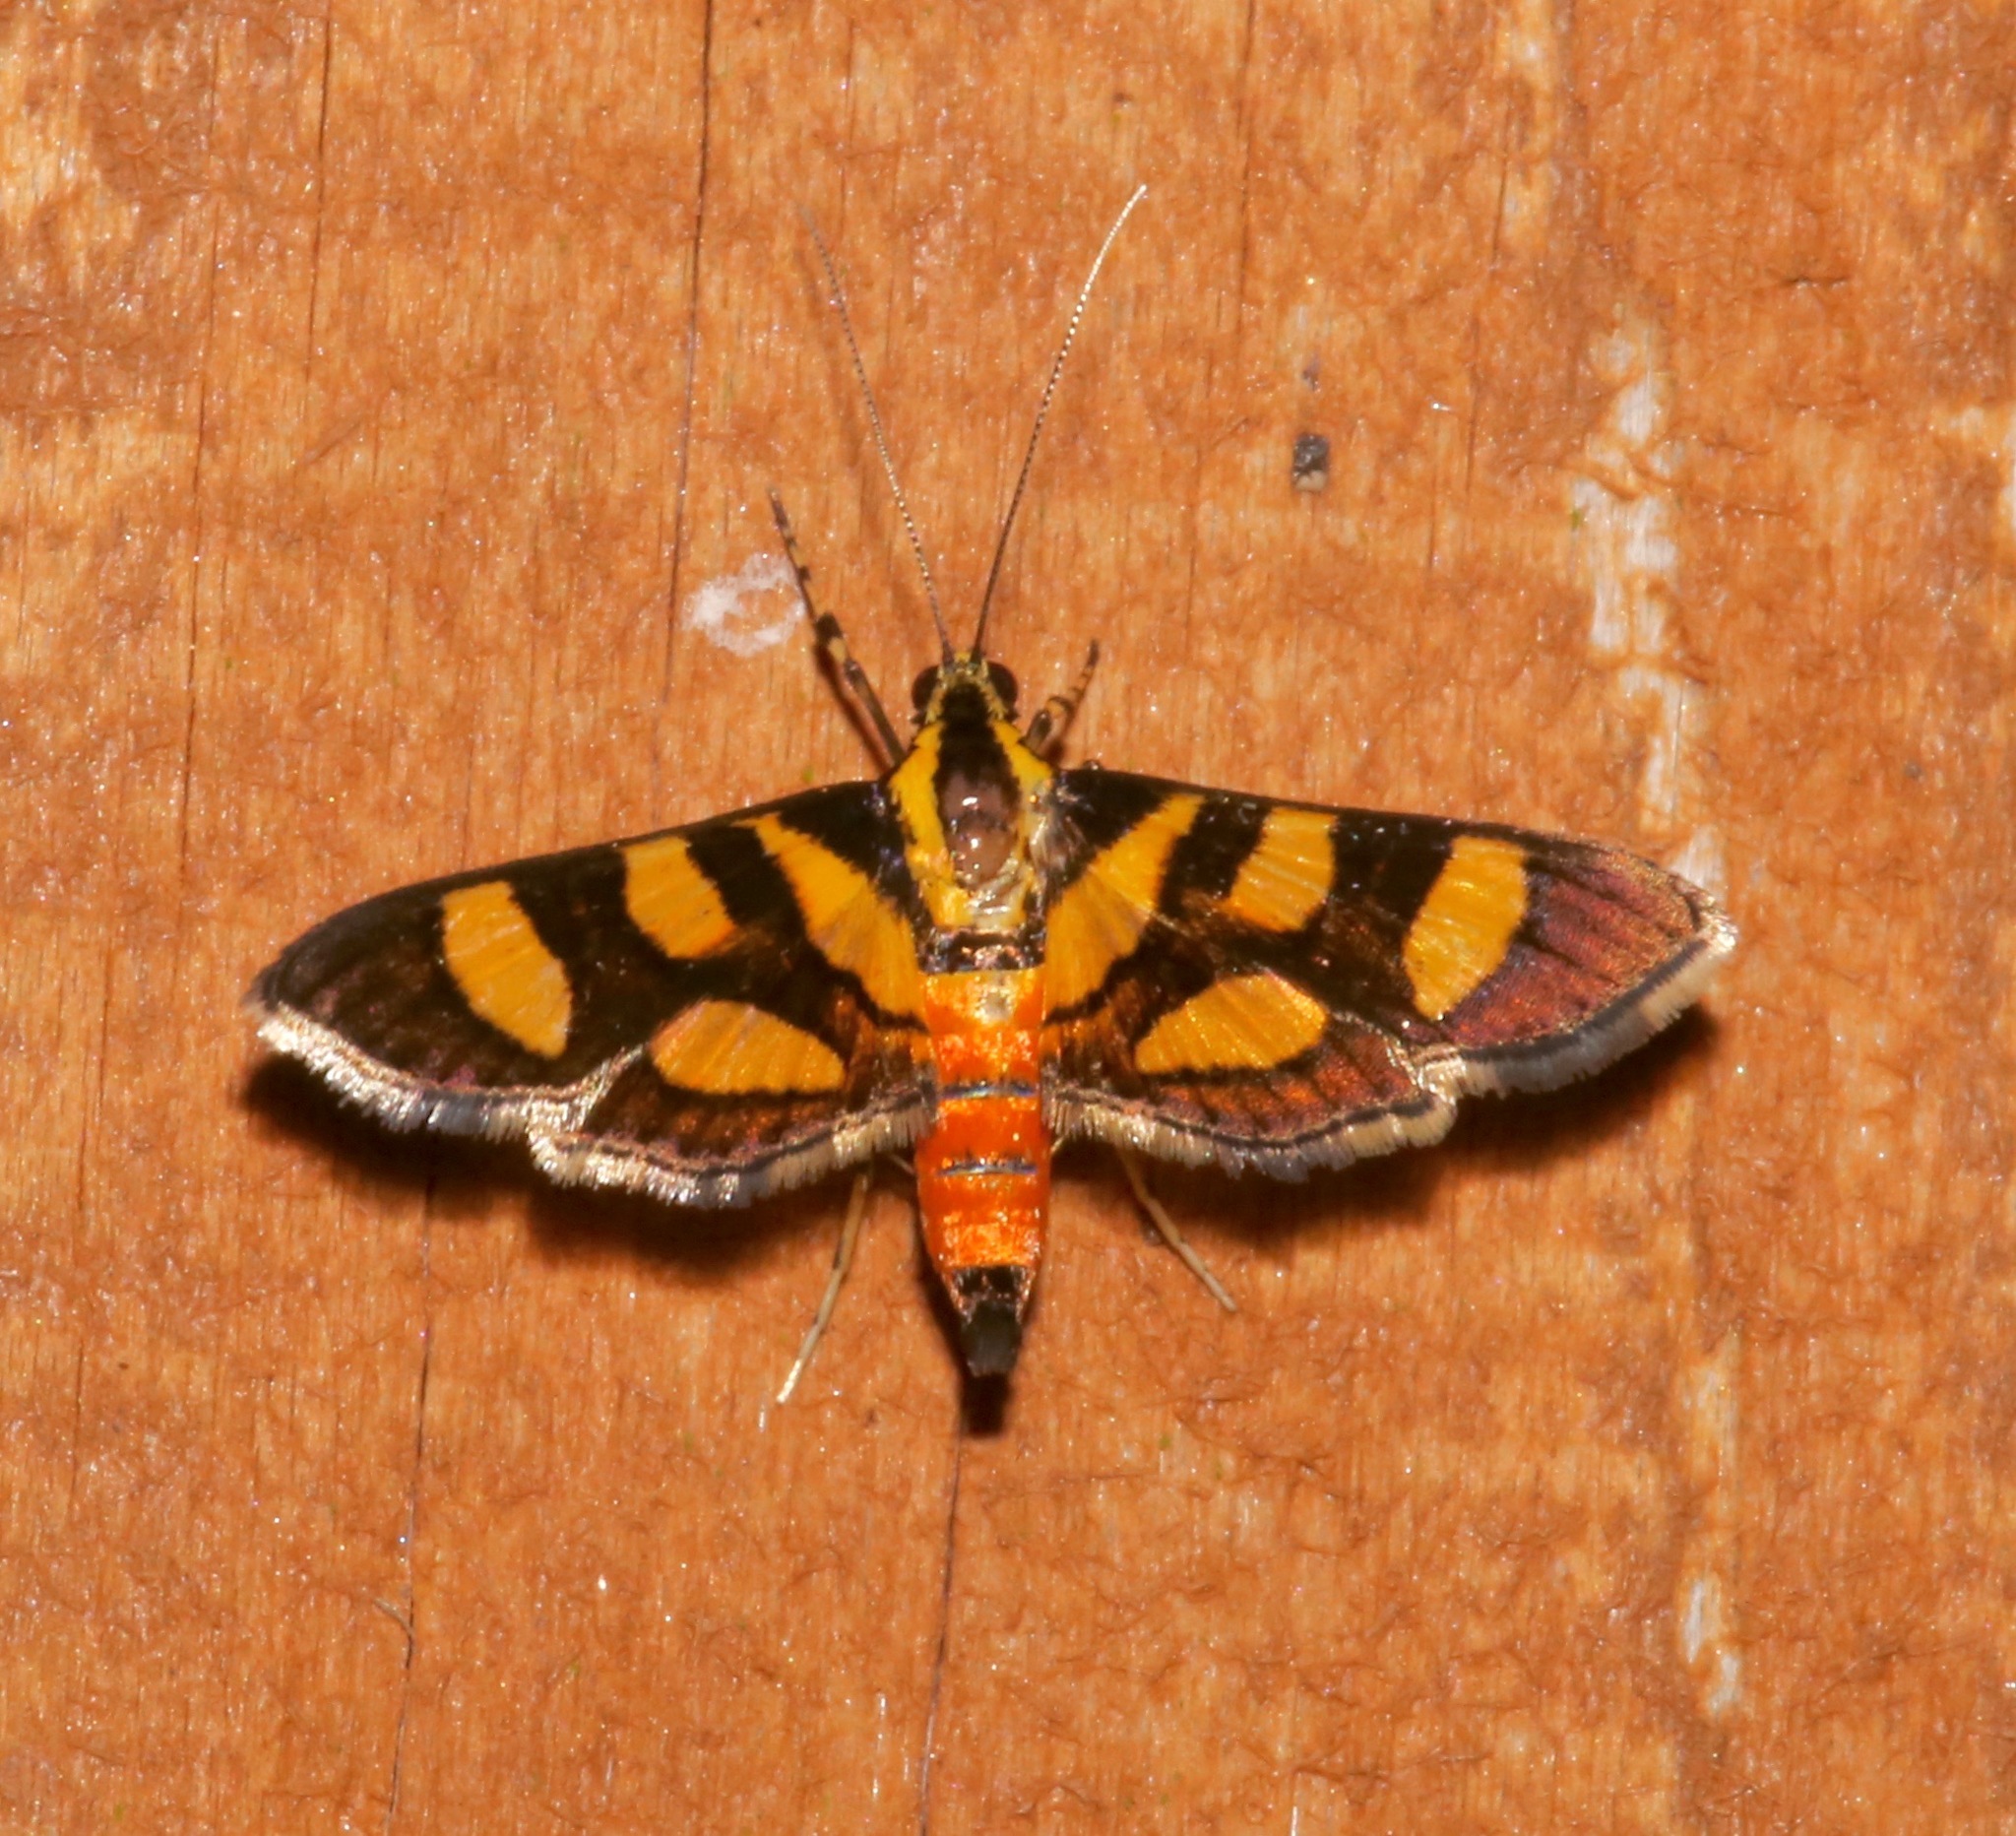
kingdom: Animalia
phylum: Arthropoda
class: Insecta
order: Lepidoptera
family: Crambidae
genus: Syngamia
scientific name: Syngamia florella
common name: Orange-spotted flower moth
